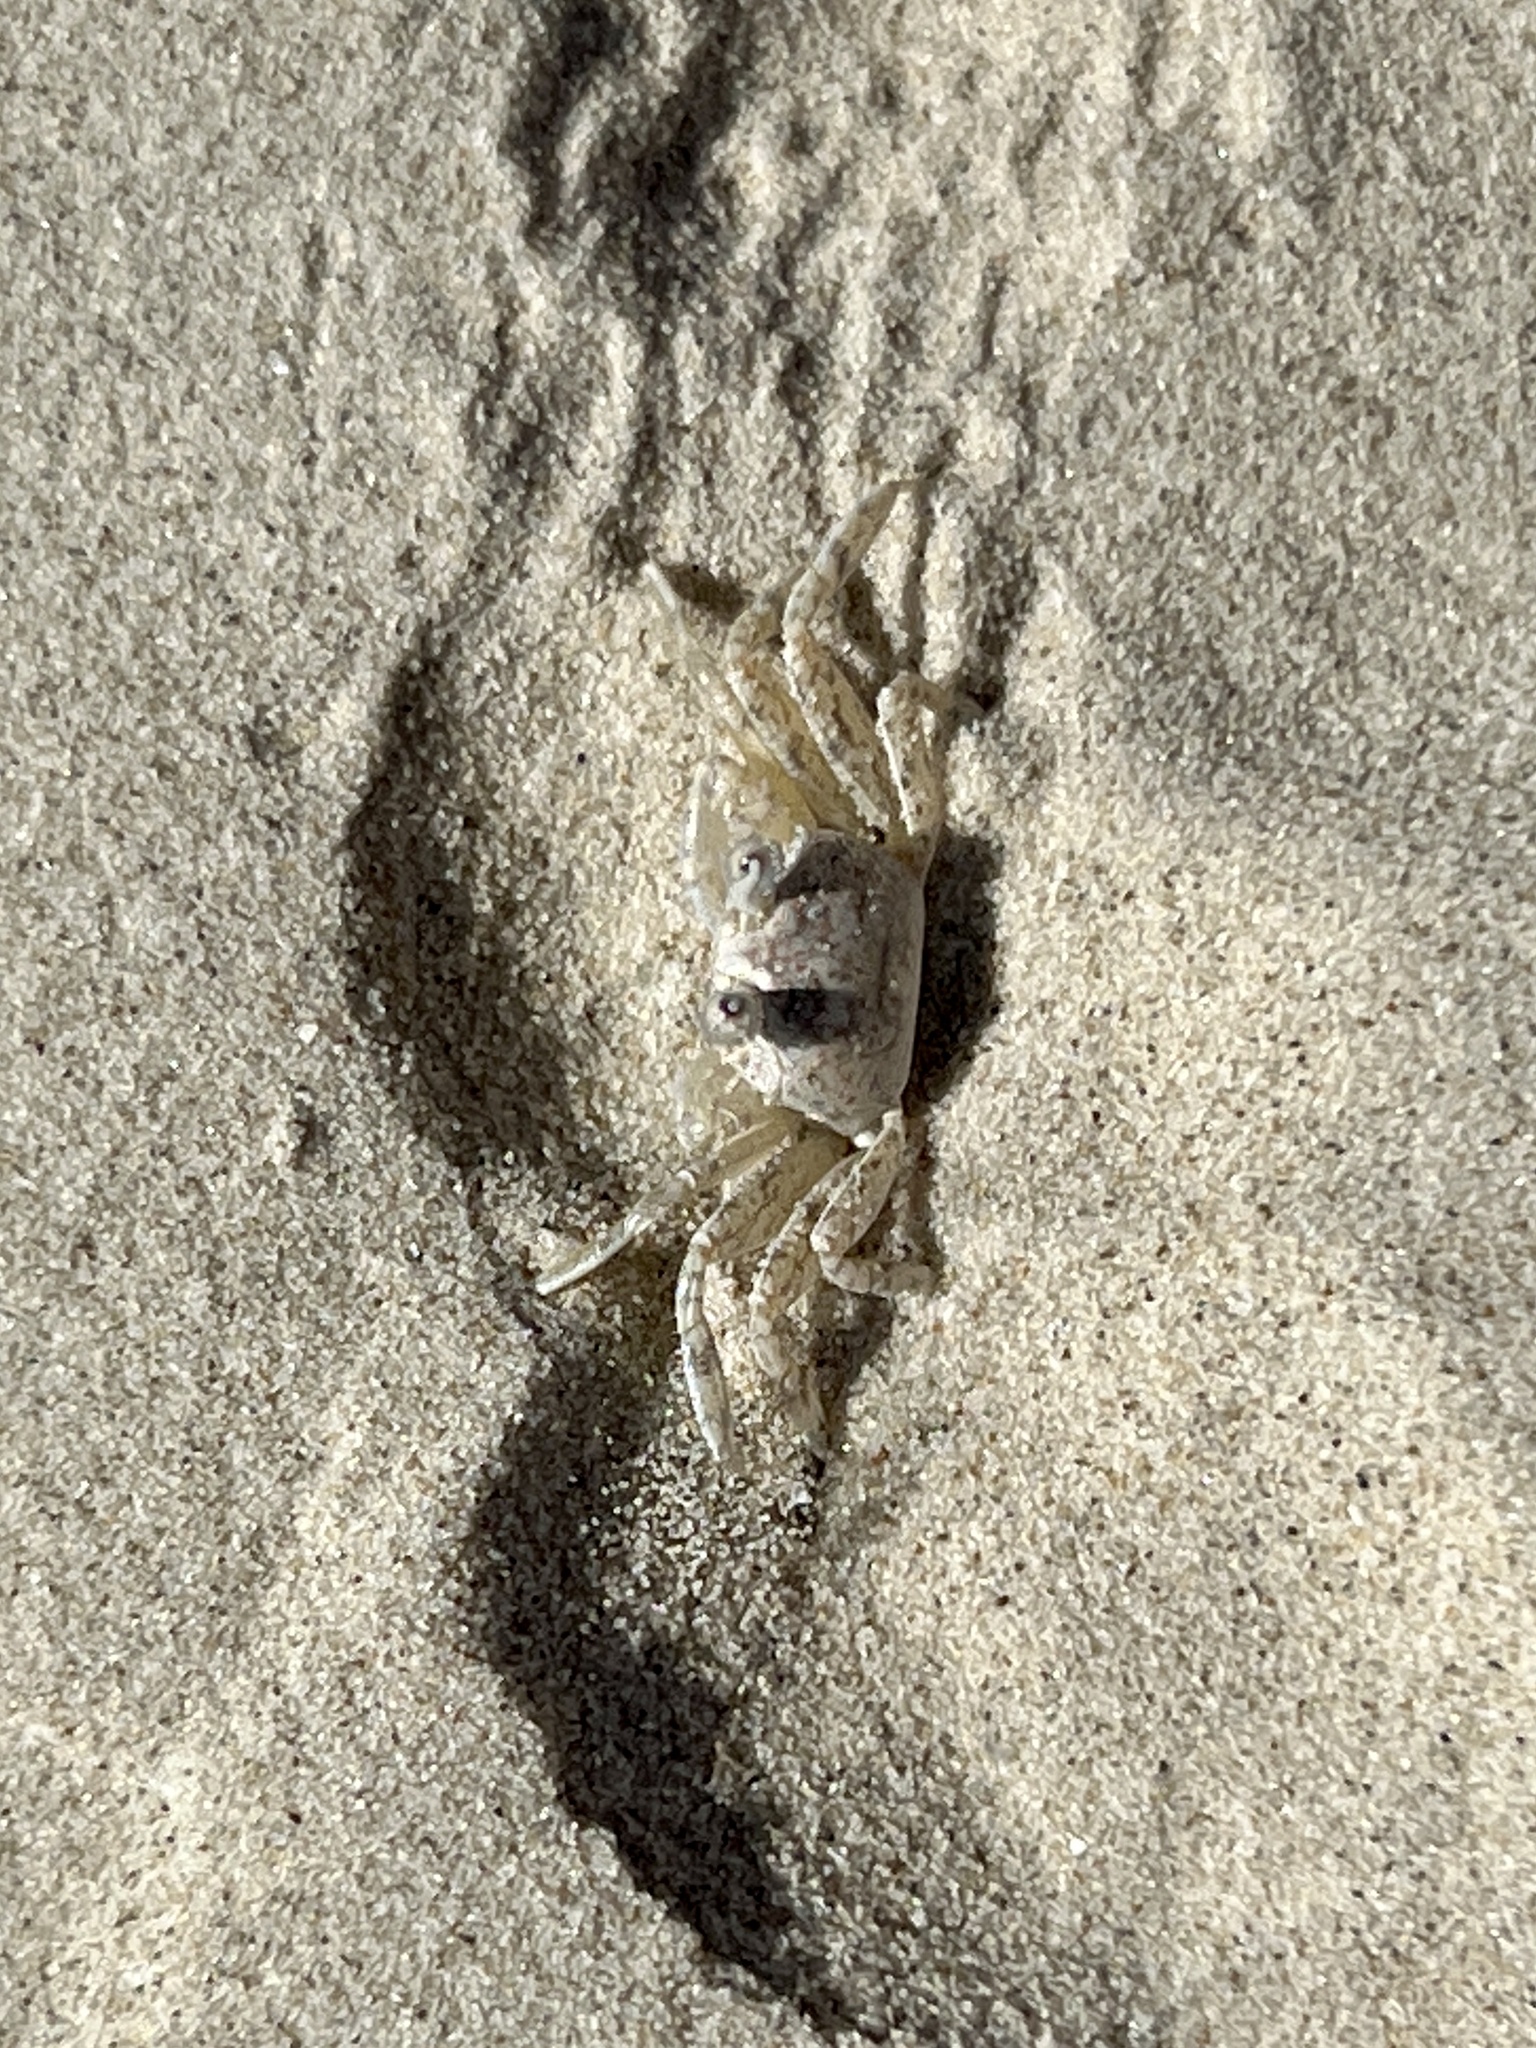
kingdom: Animalia
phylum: Arthropoda
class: Malacostraca
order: Decapoda
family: Ocypodidae
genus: Ocypode
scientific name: Ocypode quadrata
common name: Ghost crab
